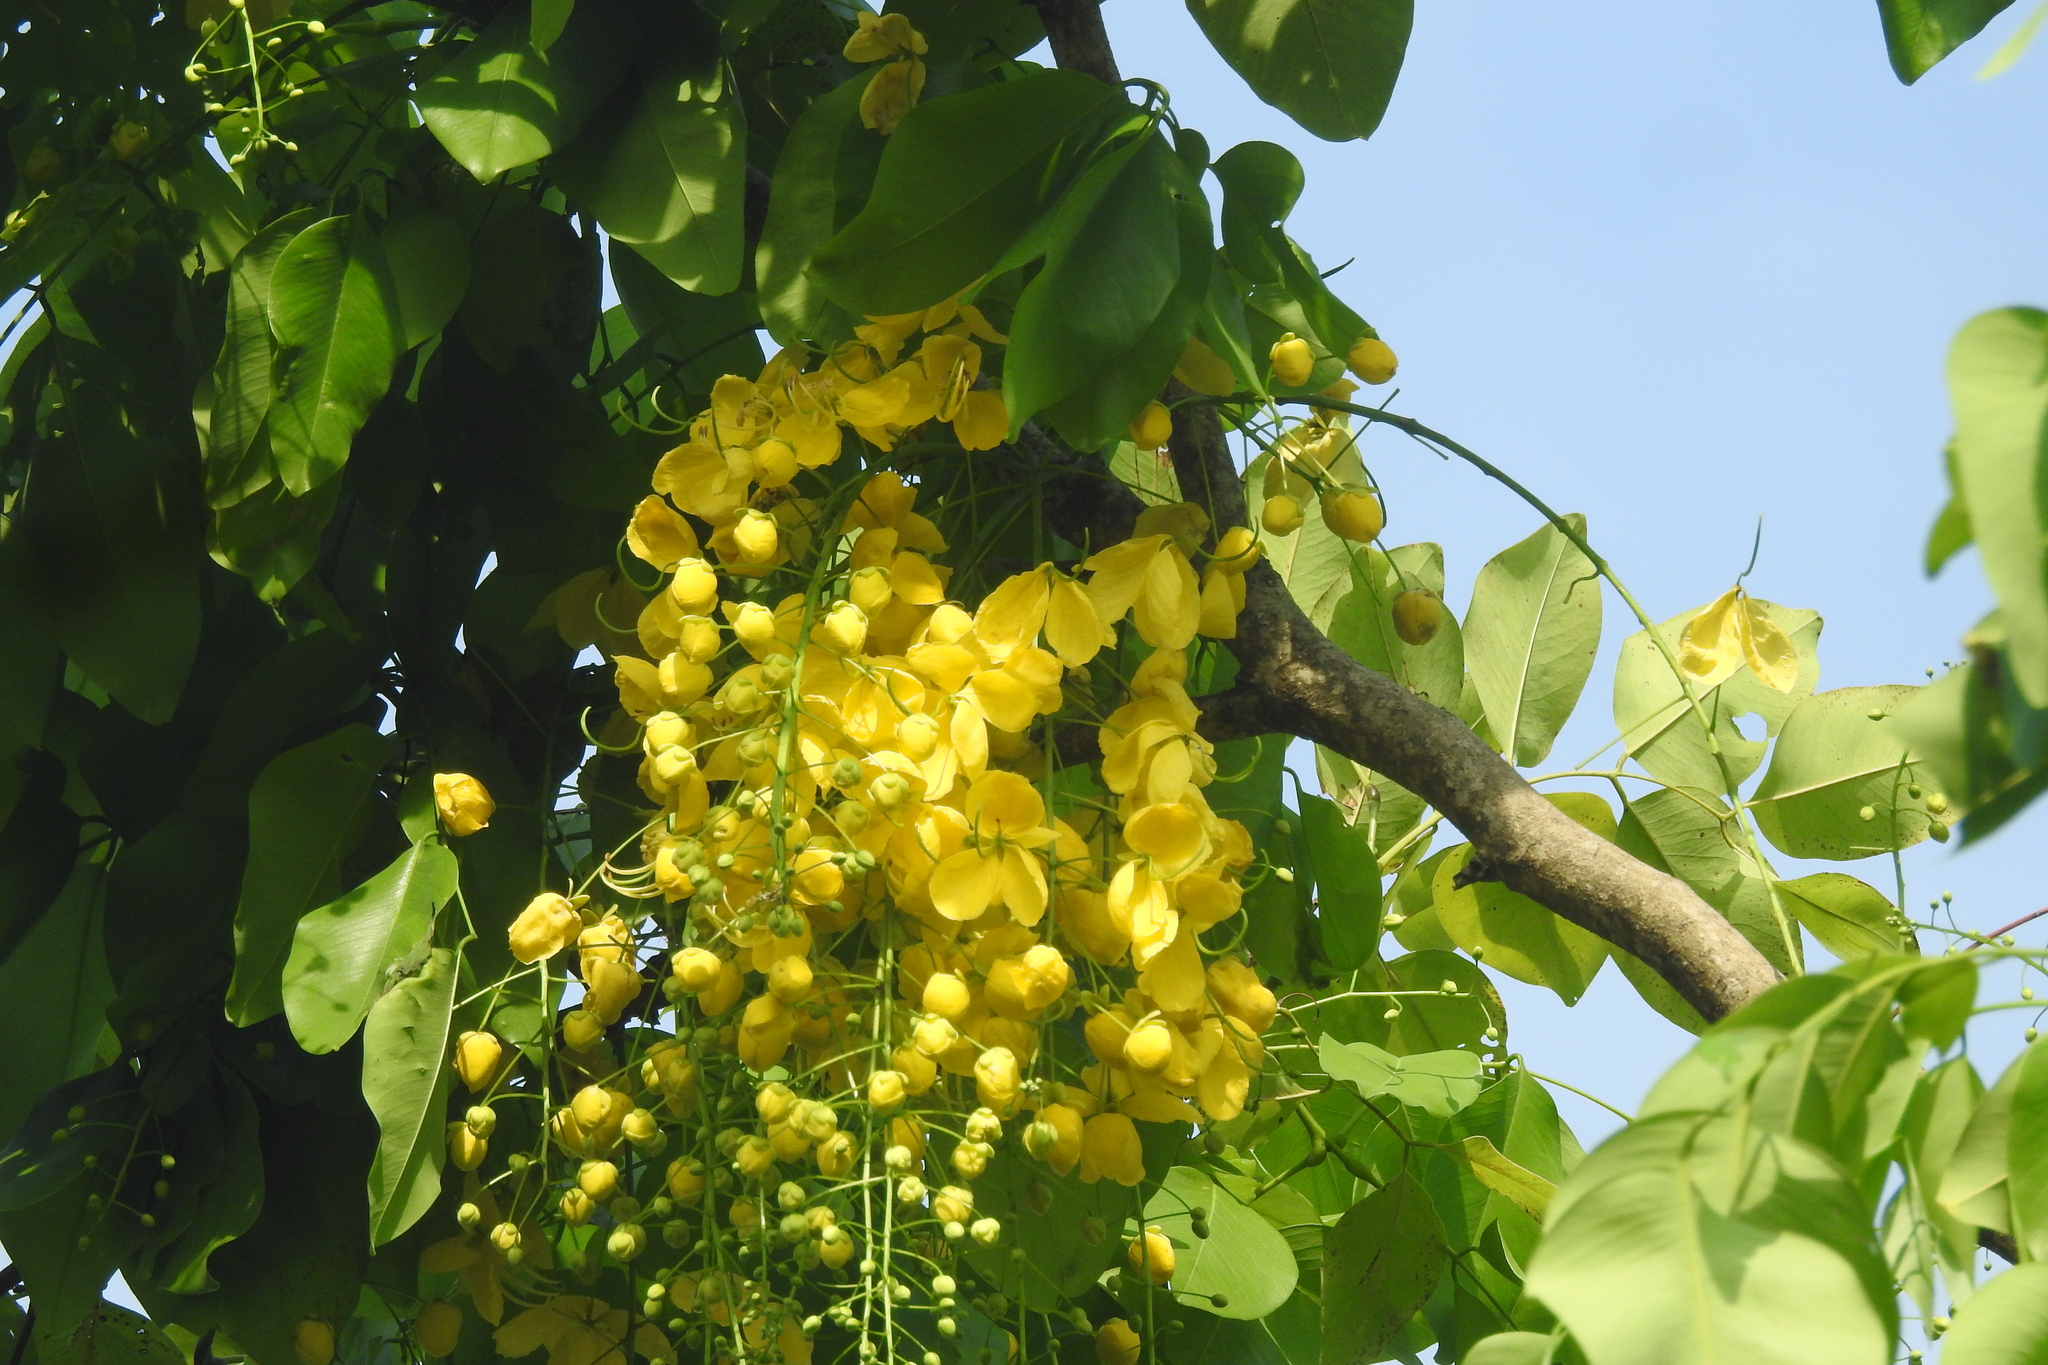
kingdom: Plantae
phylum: Tracheophyta
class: Magnoliopsida
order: Fabales
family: Fabaceae
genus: Cassia
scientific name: Cassia fistula
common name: Golden shower
